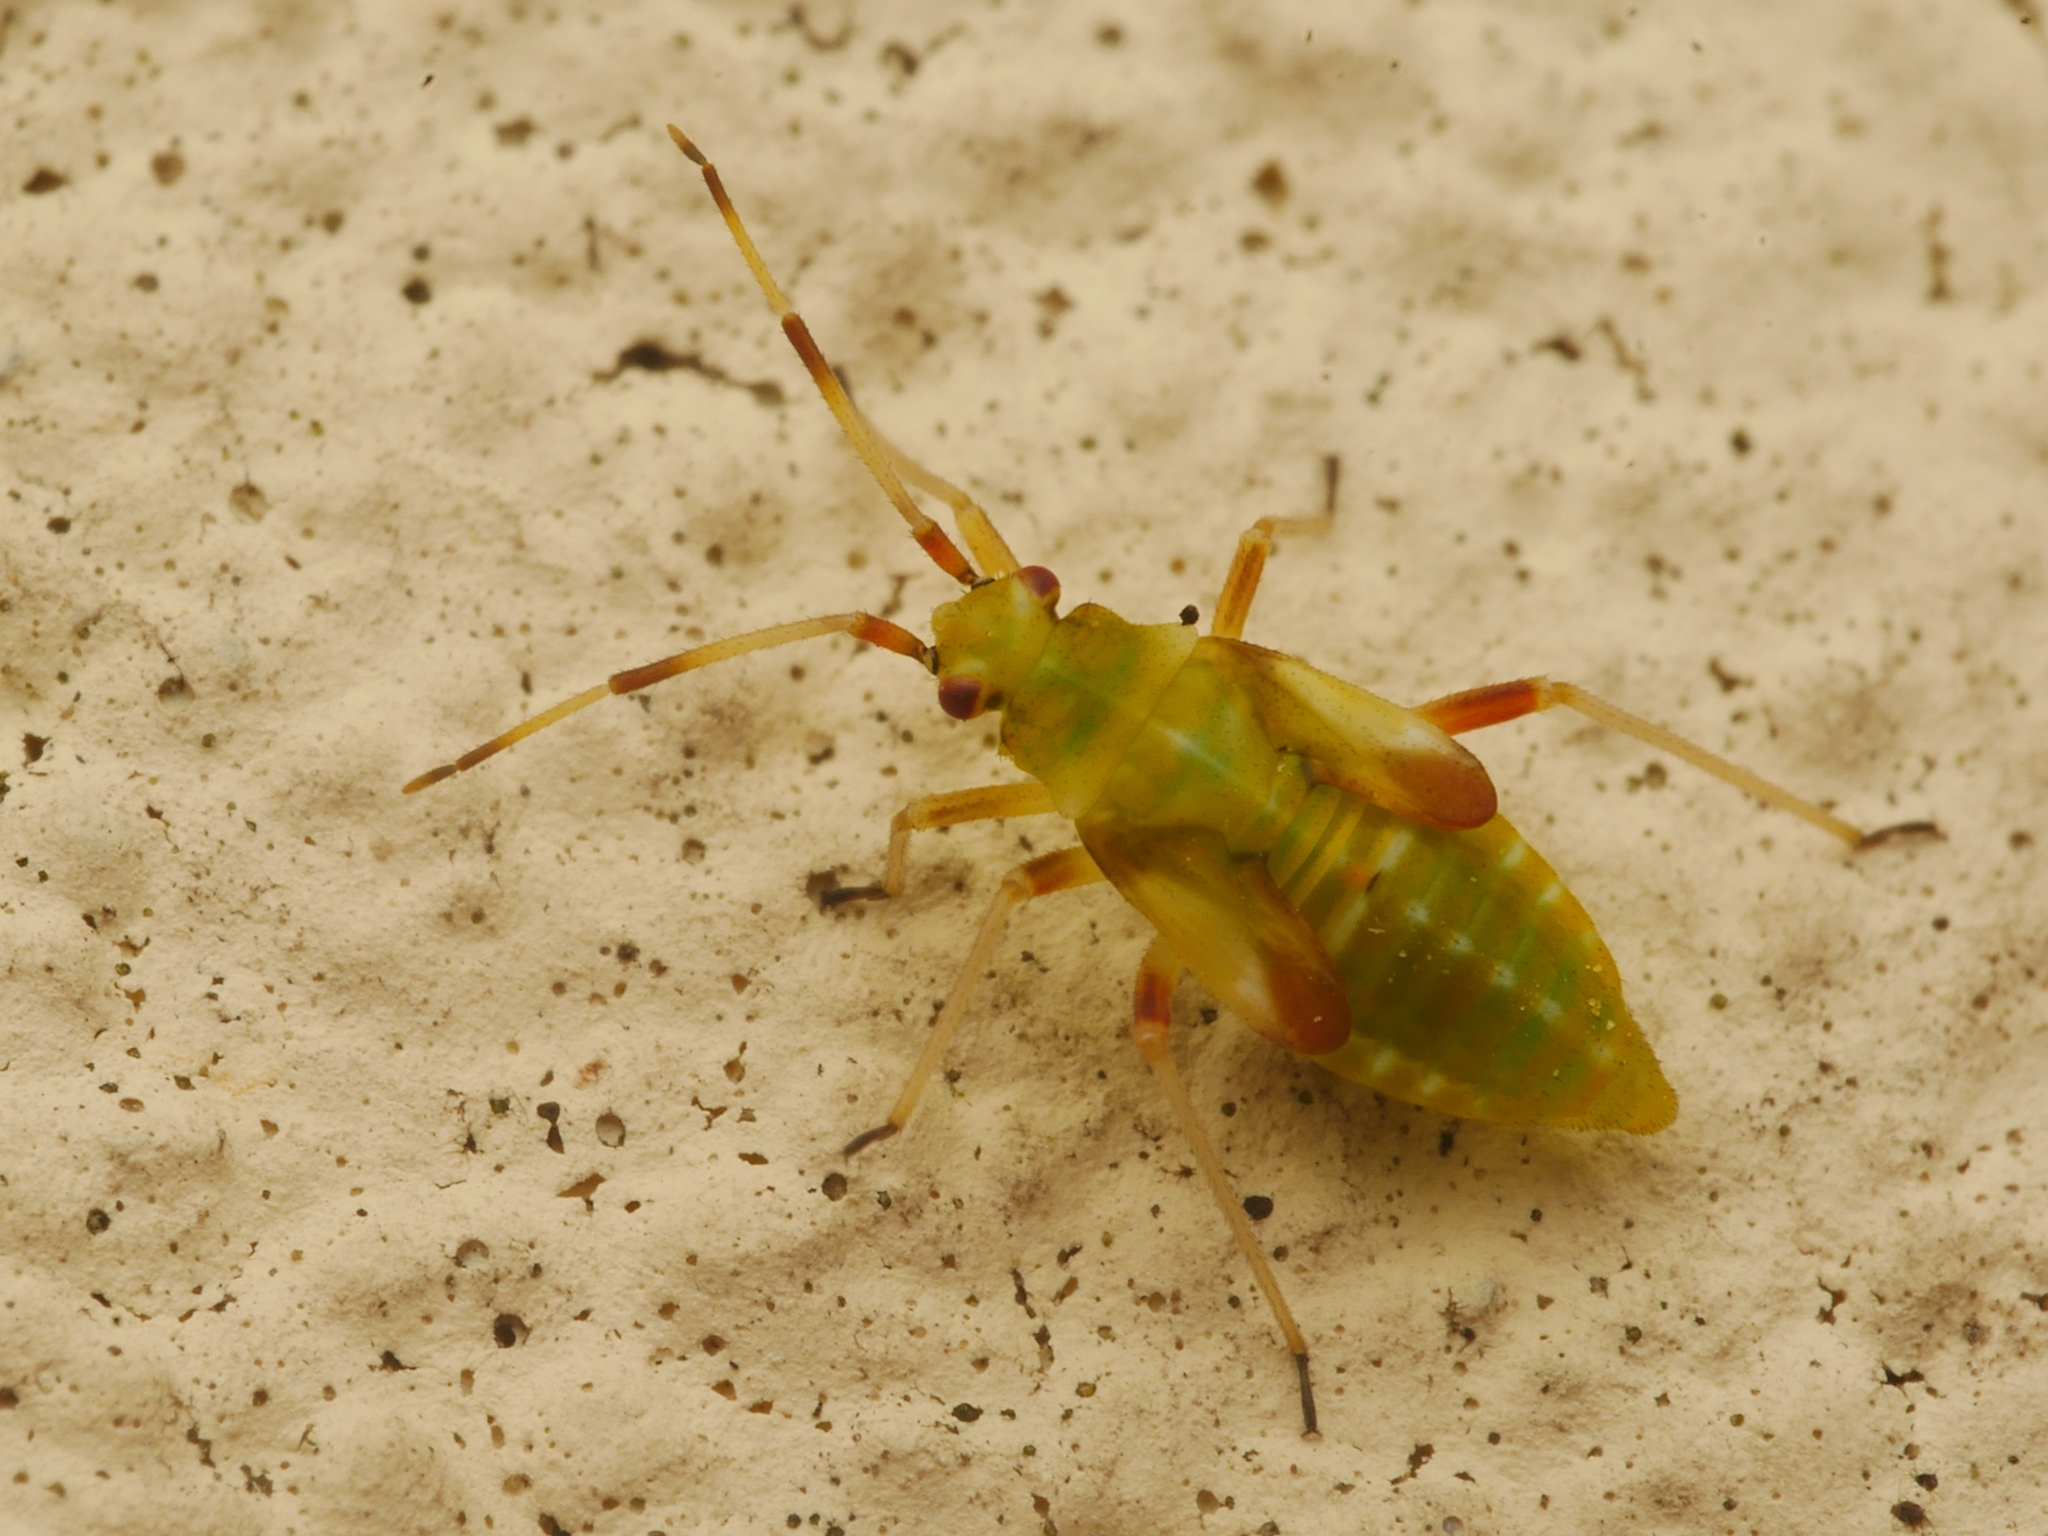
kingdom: Animalia
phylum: Arthropoda
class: Insecta
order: Hemiptera
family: Miridae
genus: Dryophilocoris
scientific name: Dryophilocoris flavoquadrimaculatus
